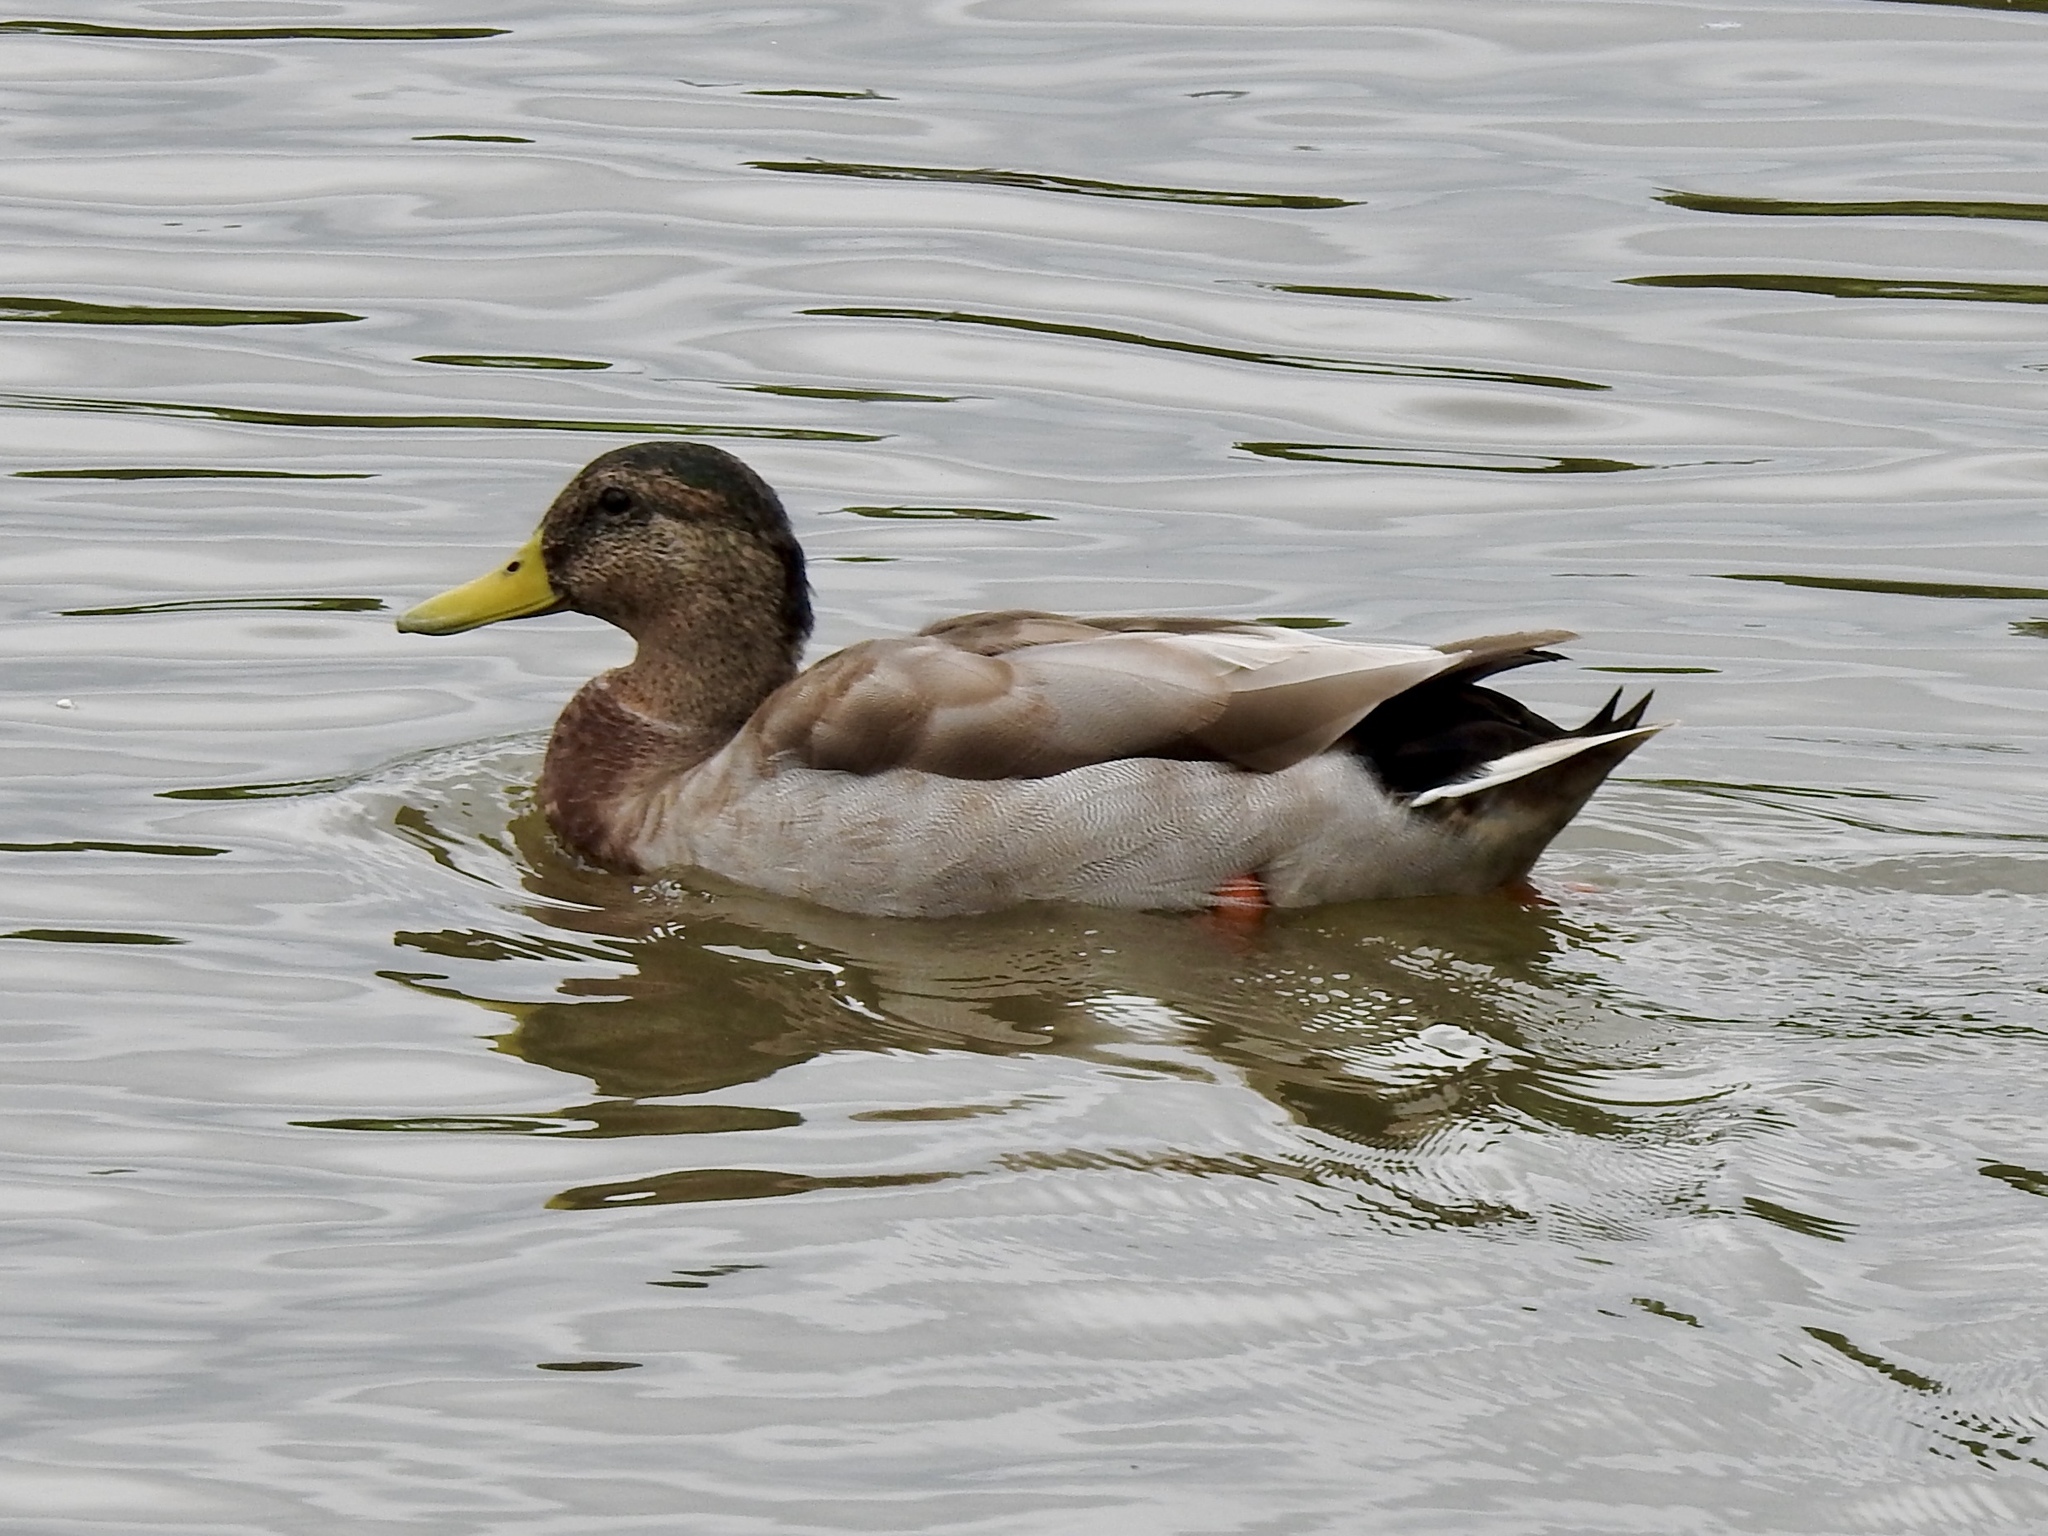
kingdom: Animalia
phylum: Chordata
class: Aves
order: Anseriformes
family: Anatidae
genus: Anas
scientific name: Anas platyrhynchos
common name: Mallard
